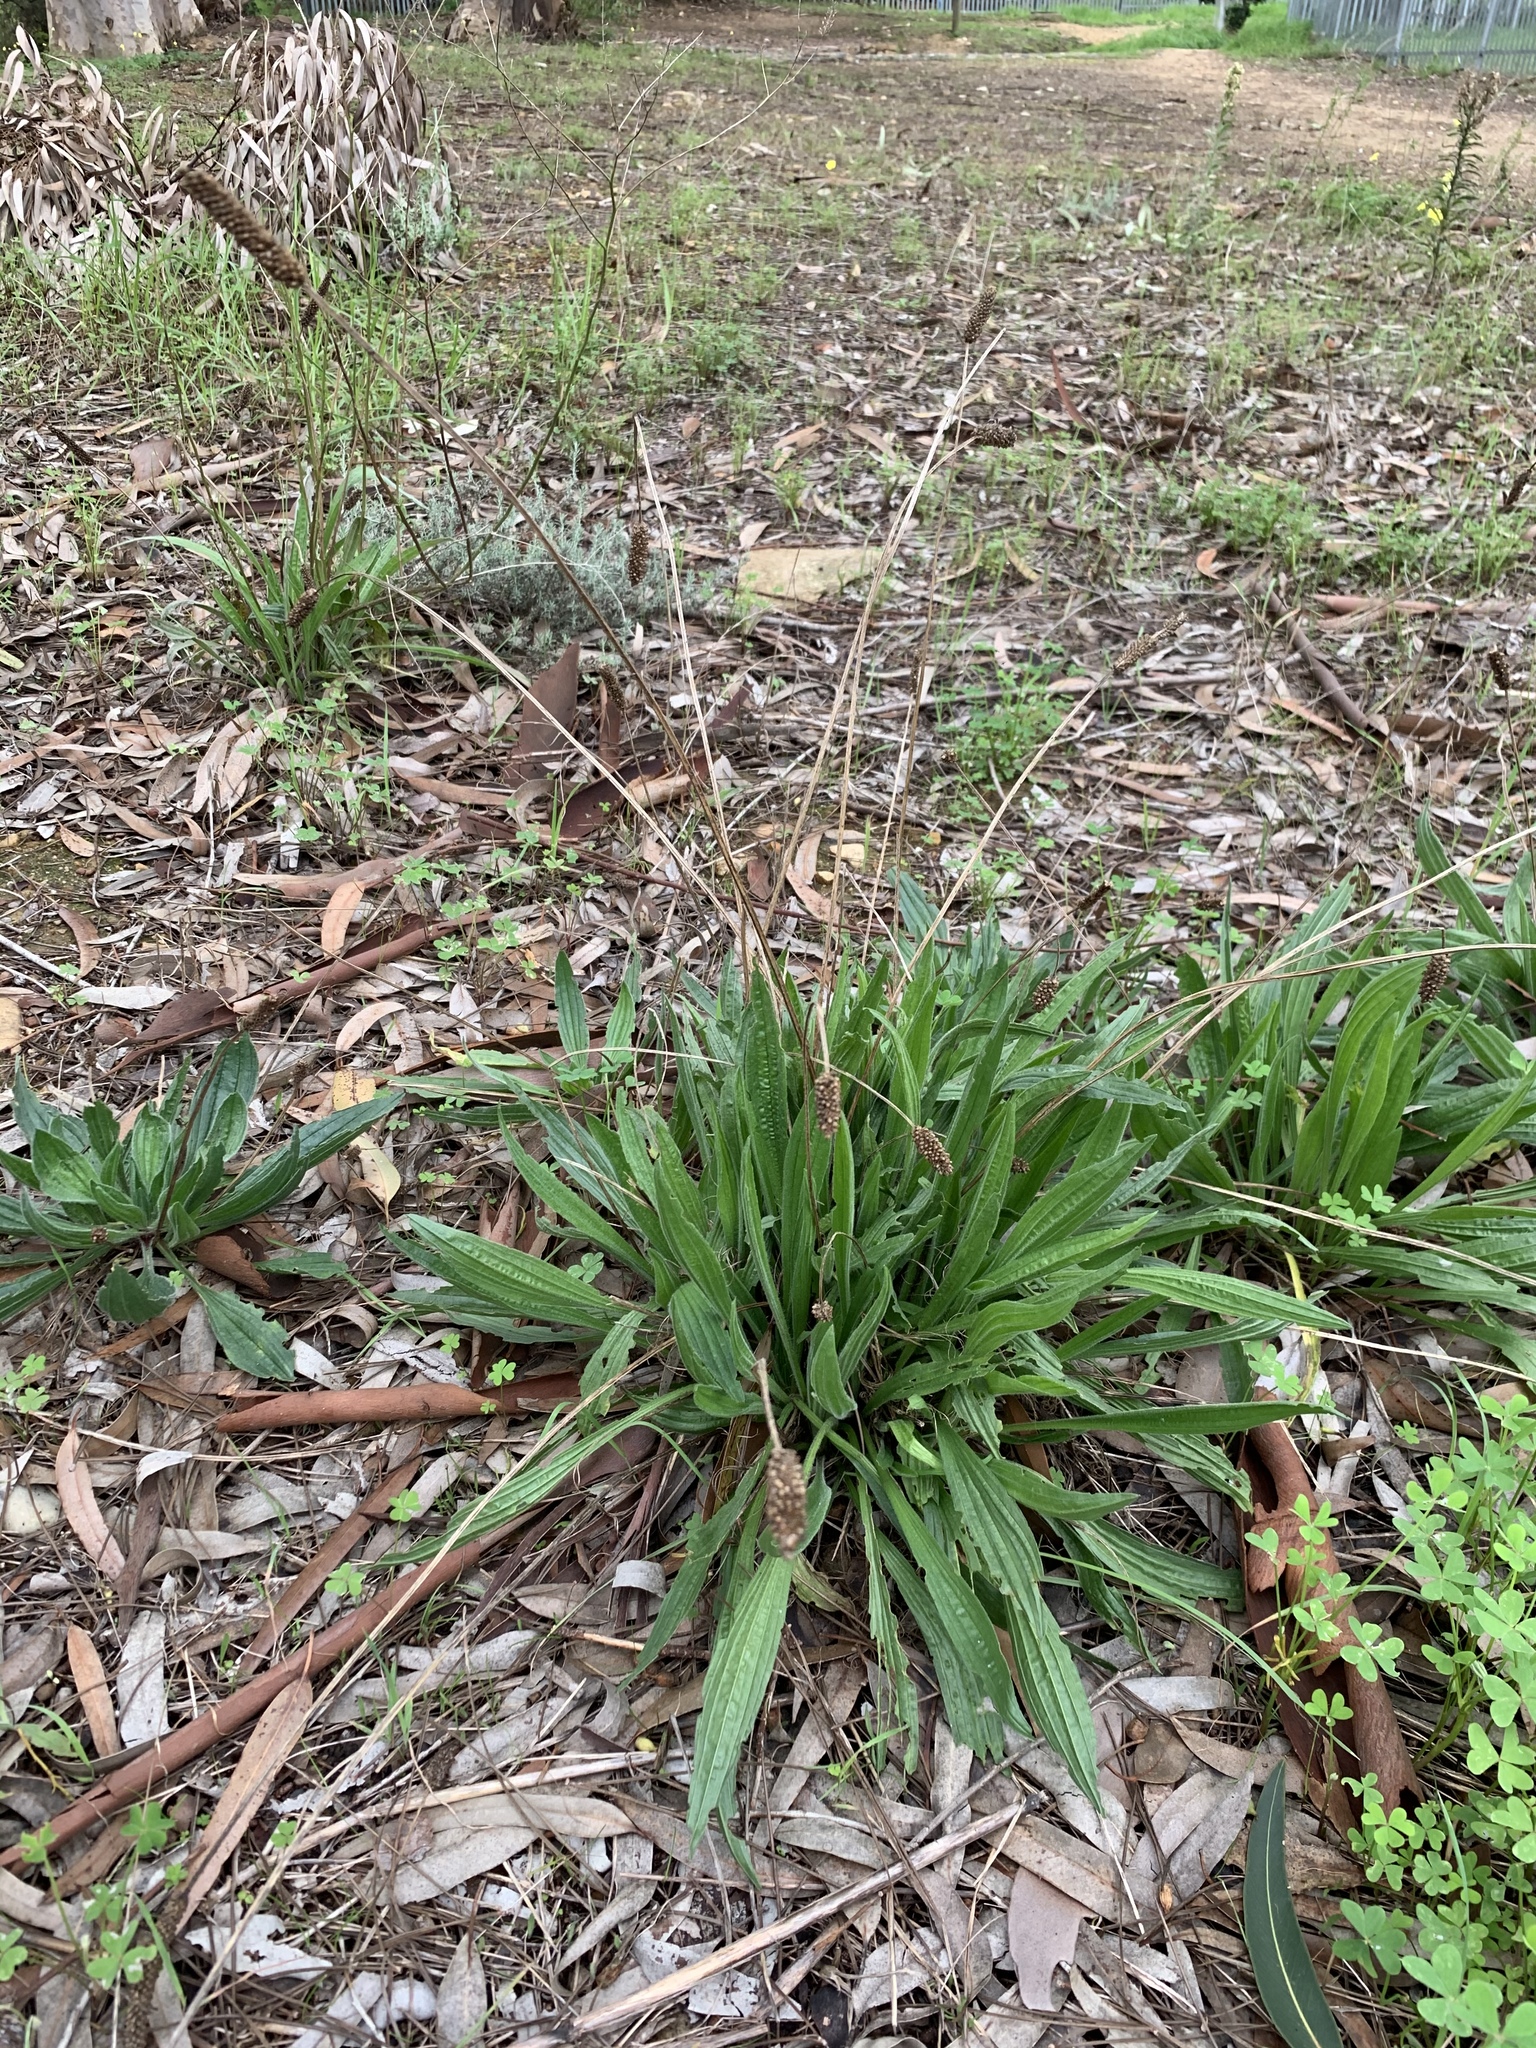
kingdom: Plantae
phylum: Tracheophyta
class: Magnoliopsida
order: Lamiales
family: Plantaginaceae
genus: Plantago
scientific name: Plantago lanceolata
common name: Ribwort plantain
